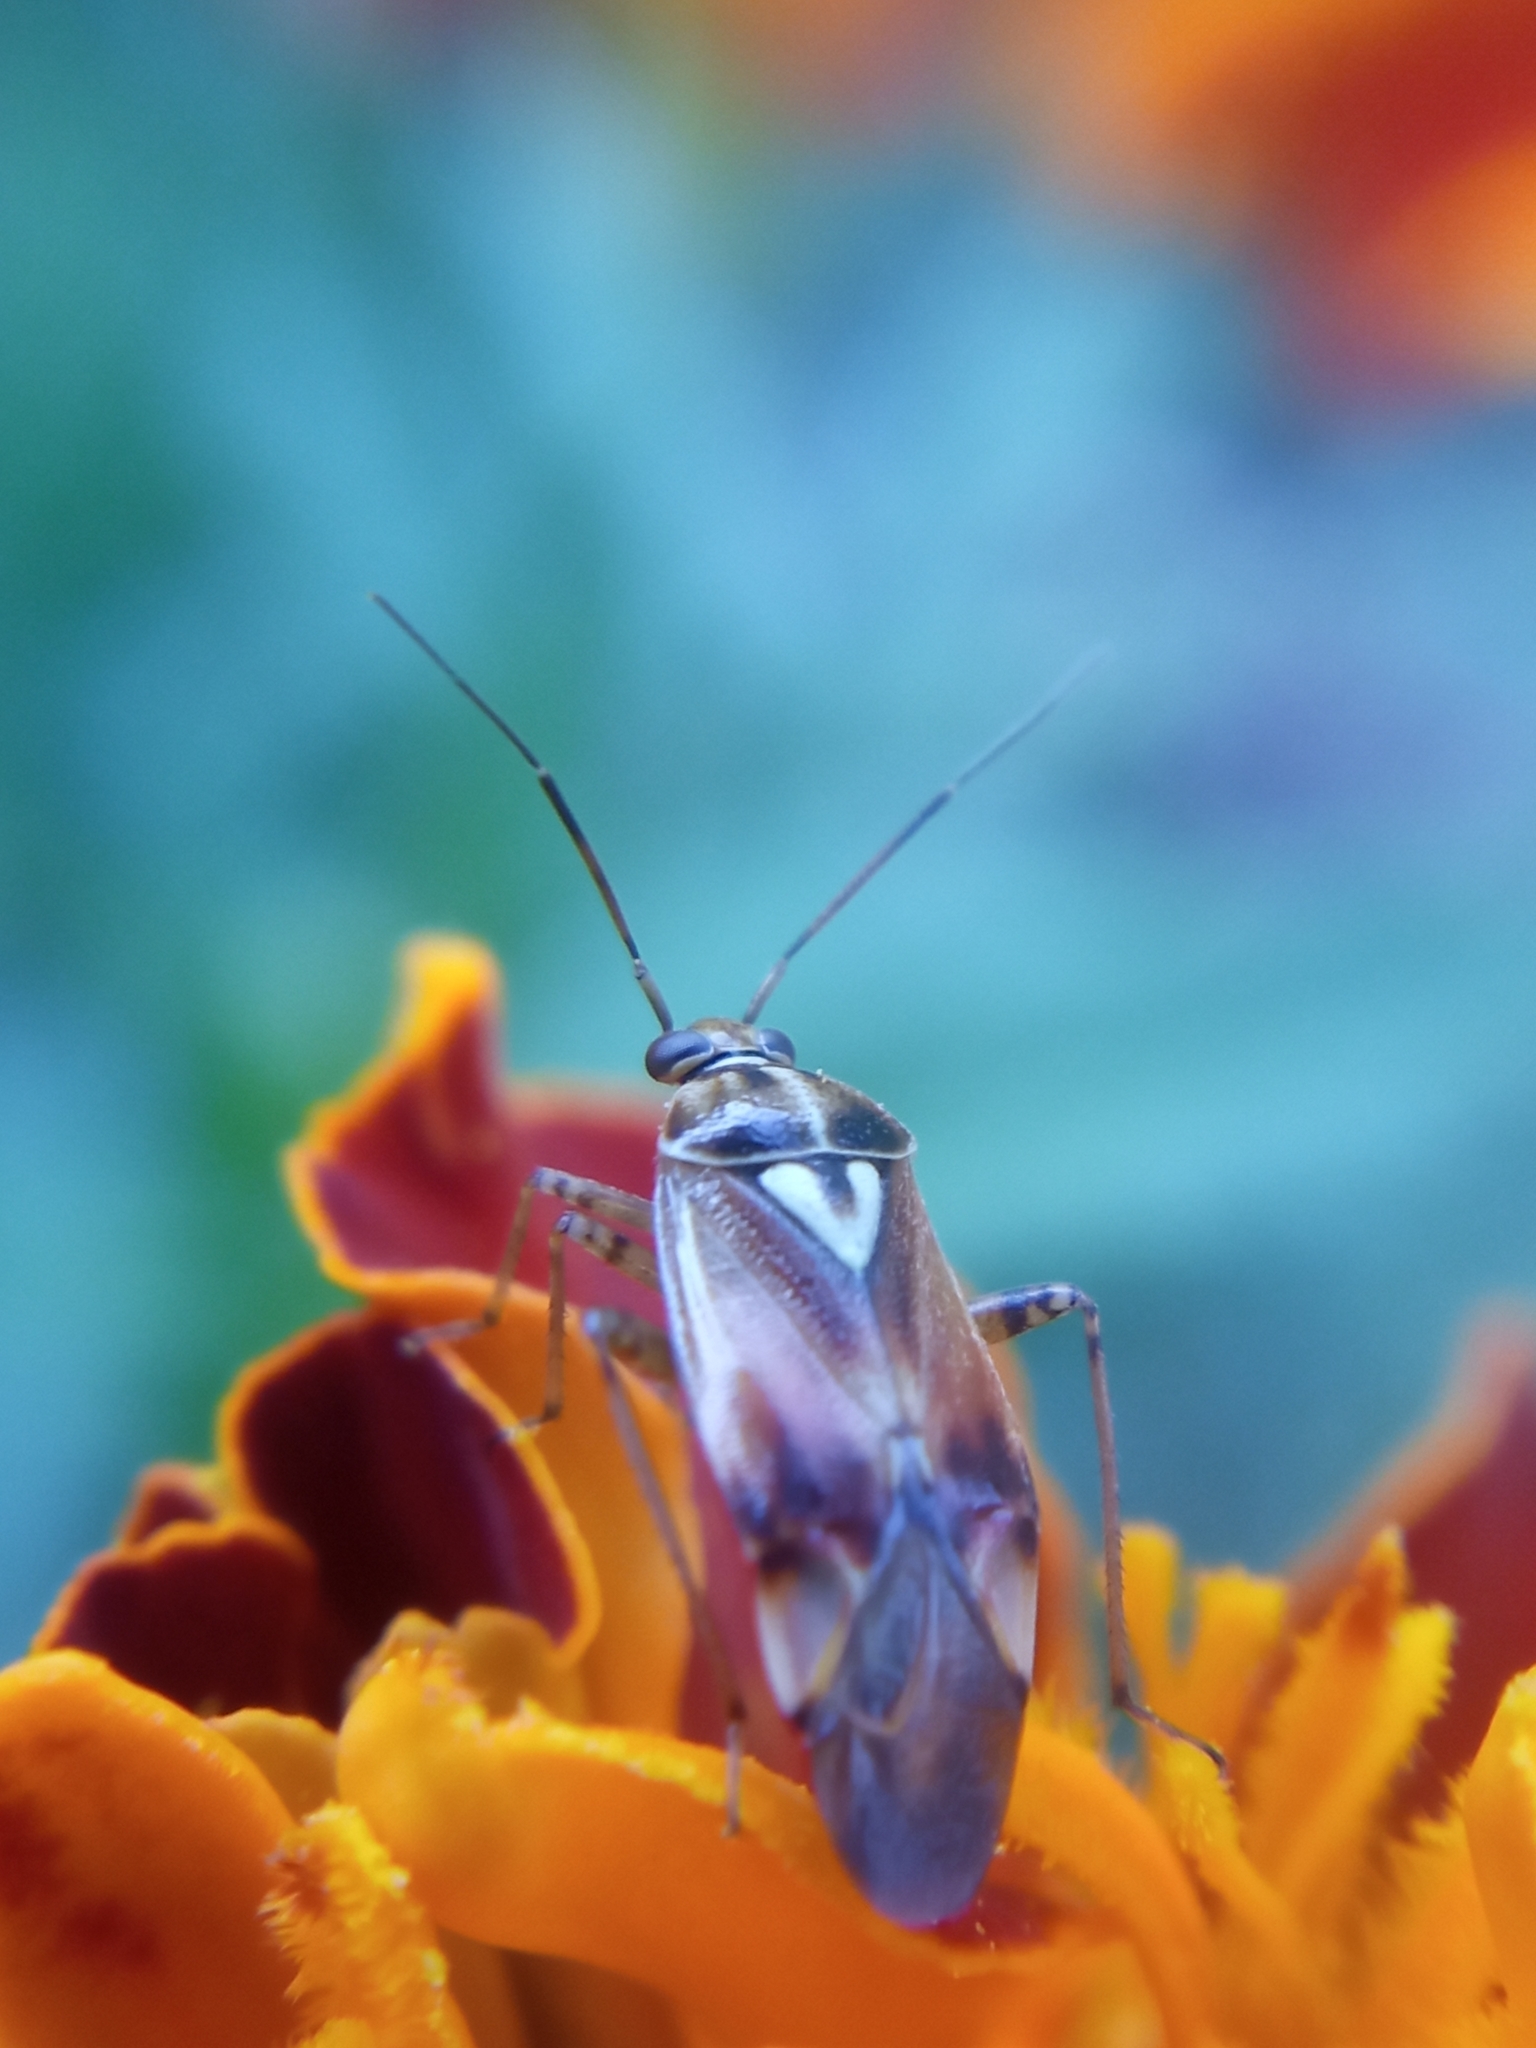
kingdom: Animalia
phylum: Arthropoda
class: Insecta
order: Hemiptera
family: Miridae
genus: Lygus
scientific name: Lygus pratensis
